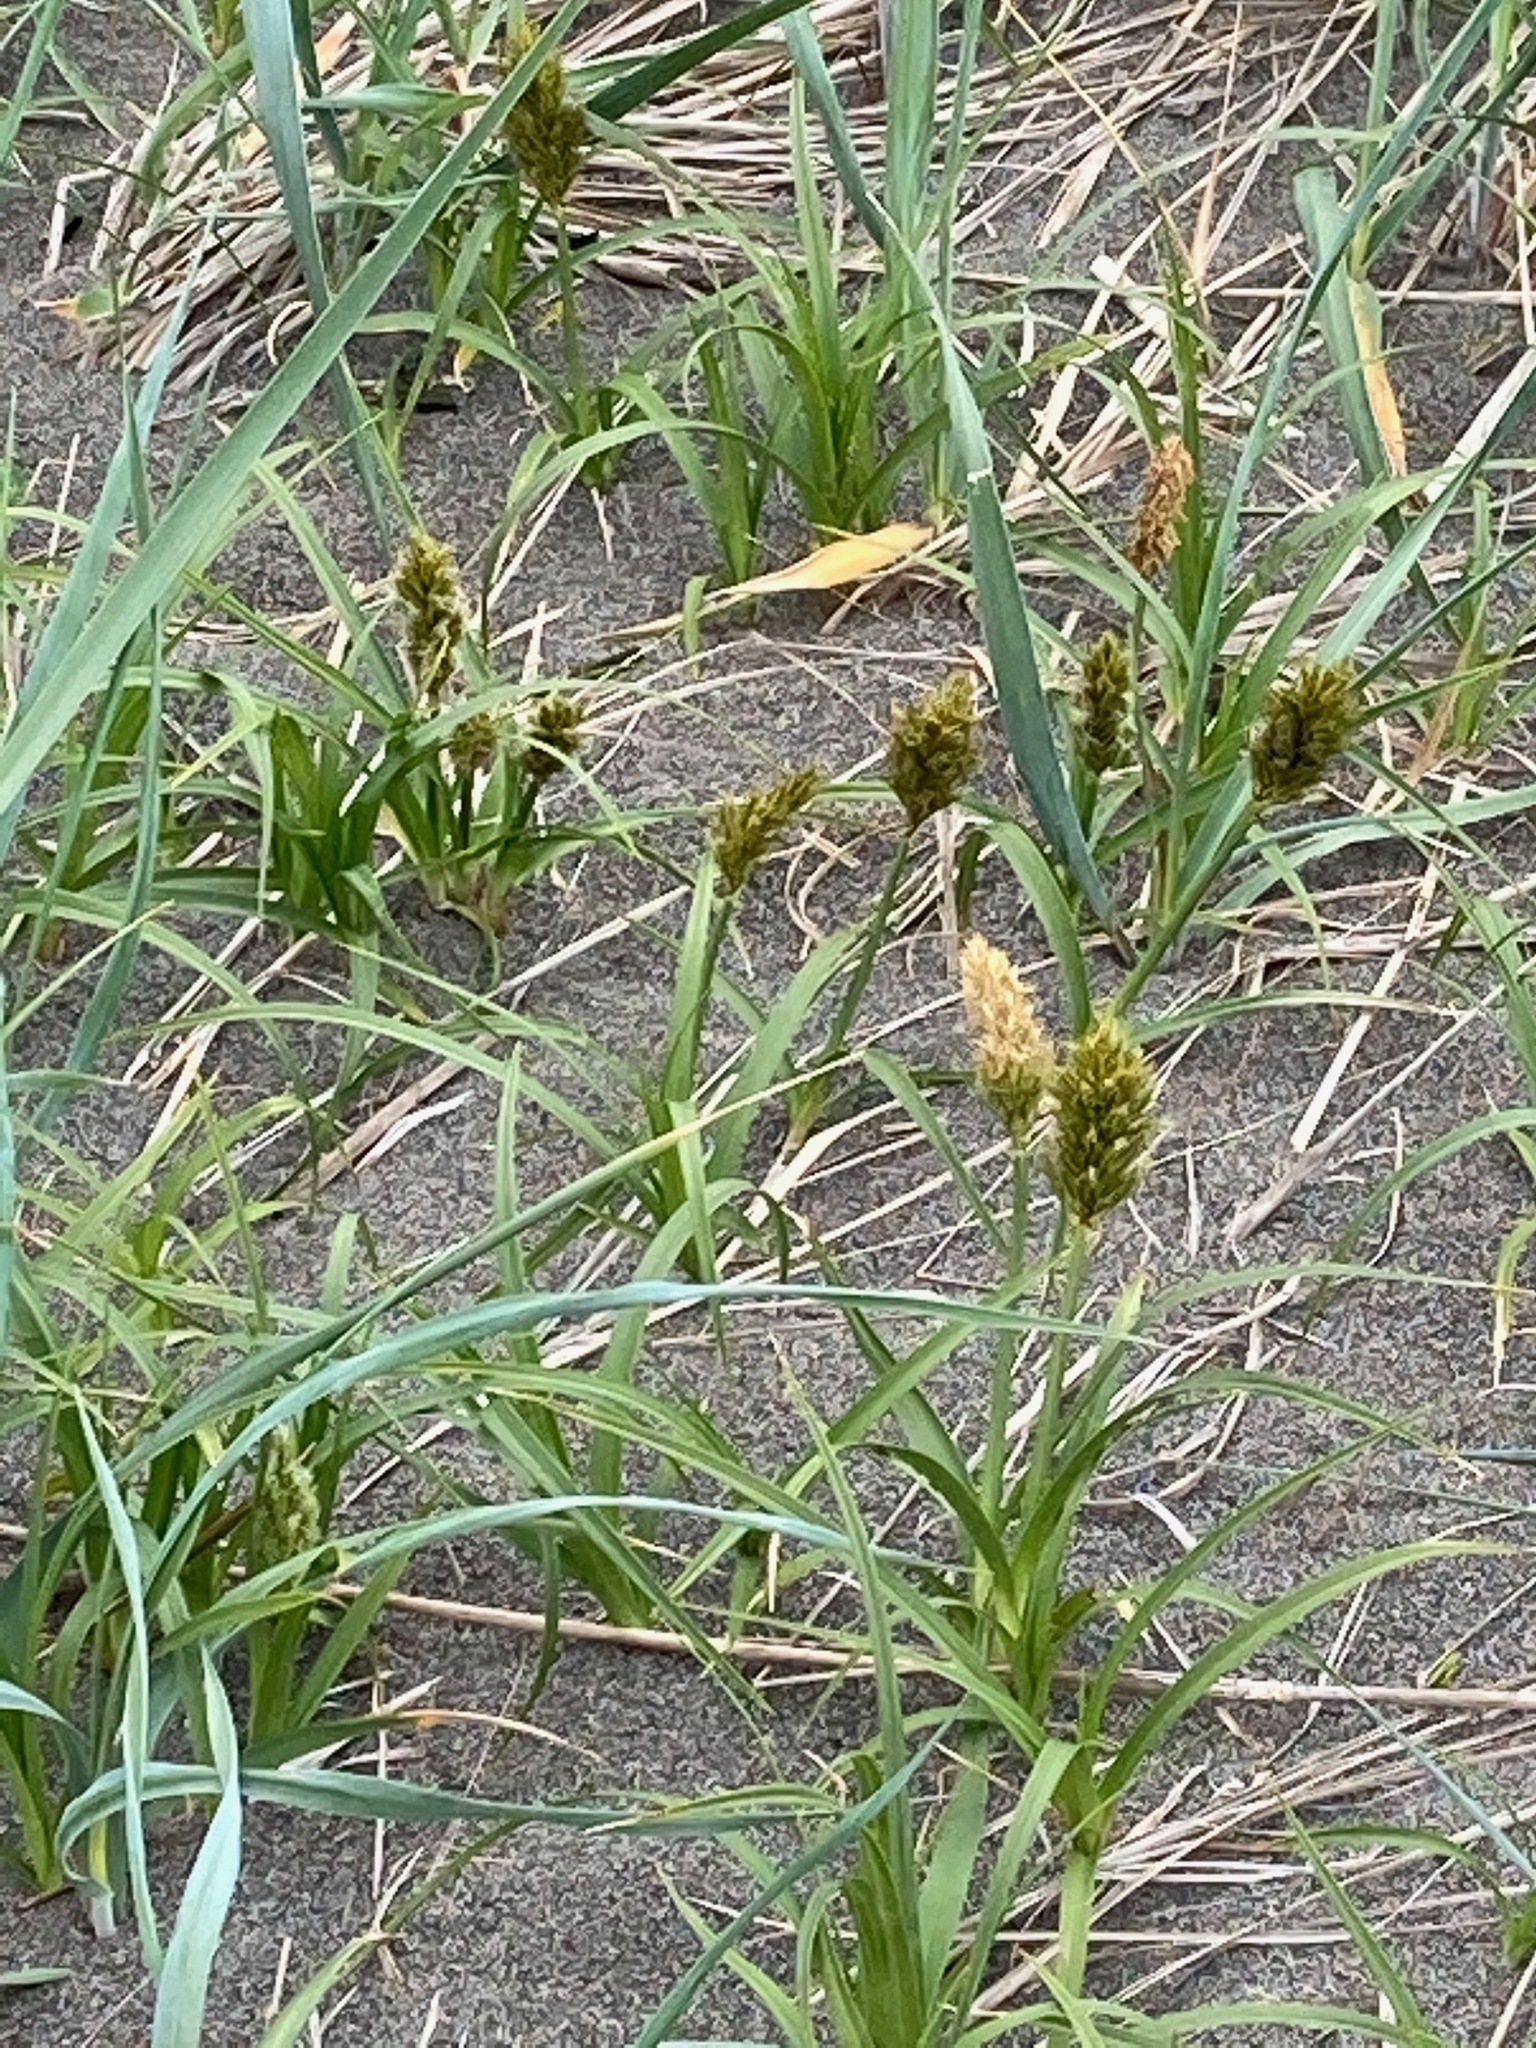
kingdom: Plantae
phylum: Tracheophyta
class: Liliopsida
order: Poales
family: Cyperaceae
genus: Carex
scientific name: Carex macrocephala
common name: Large-head sedge
